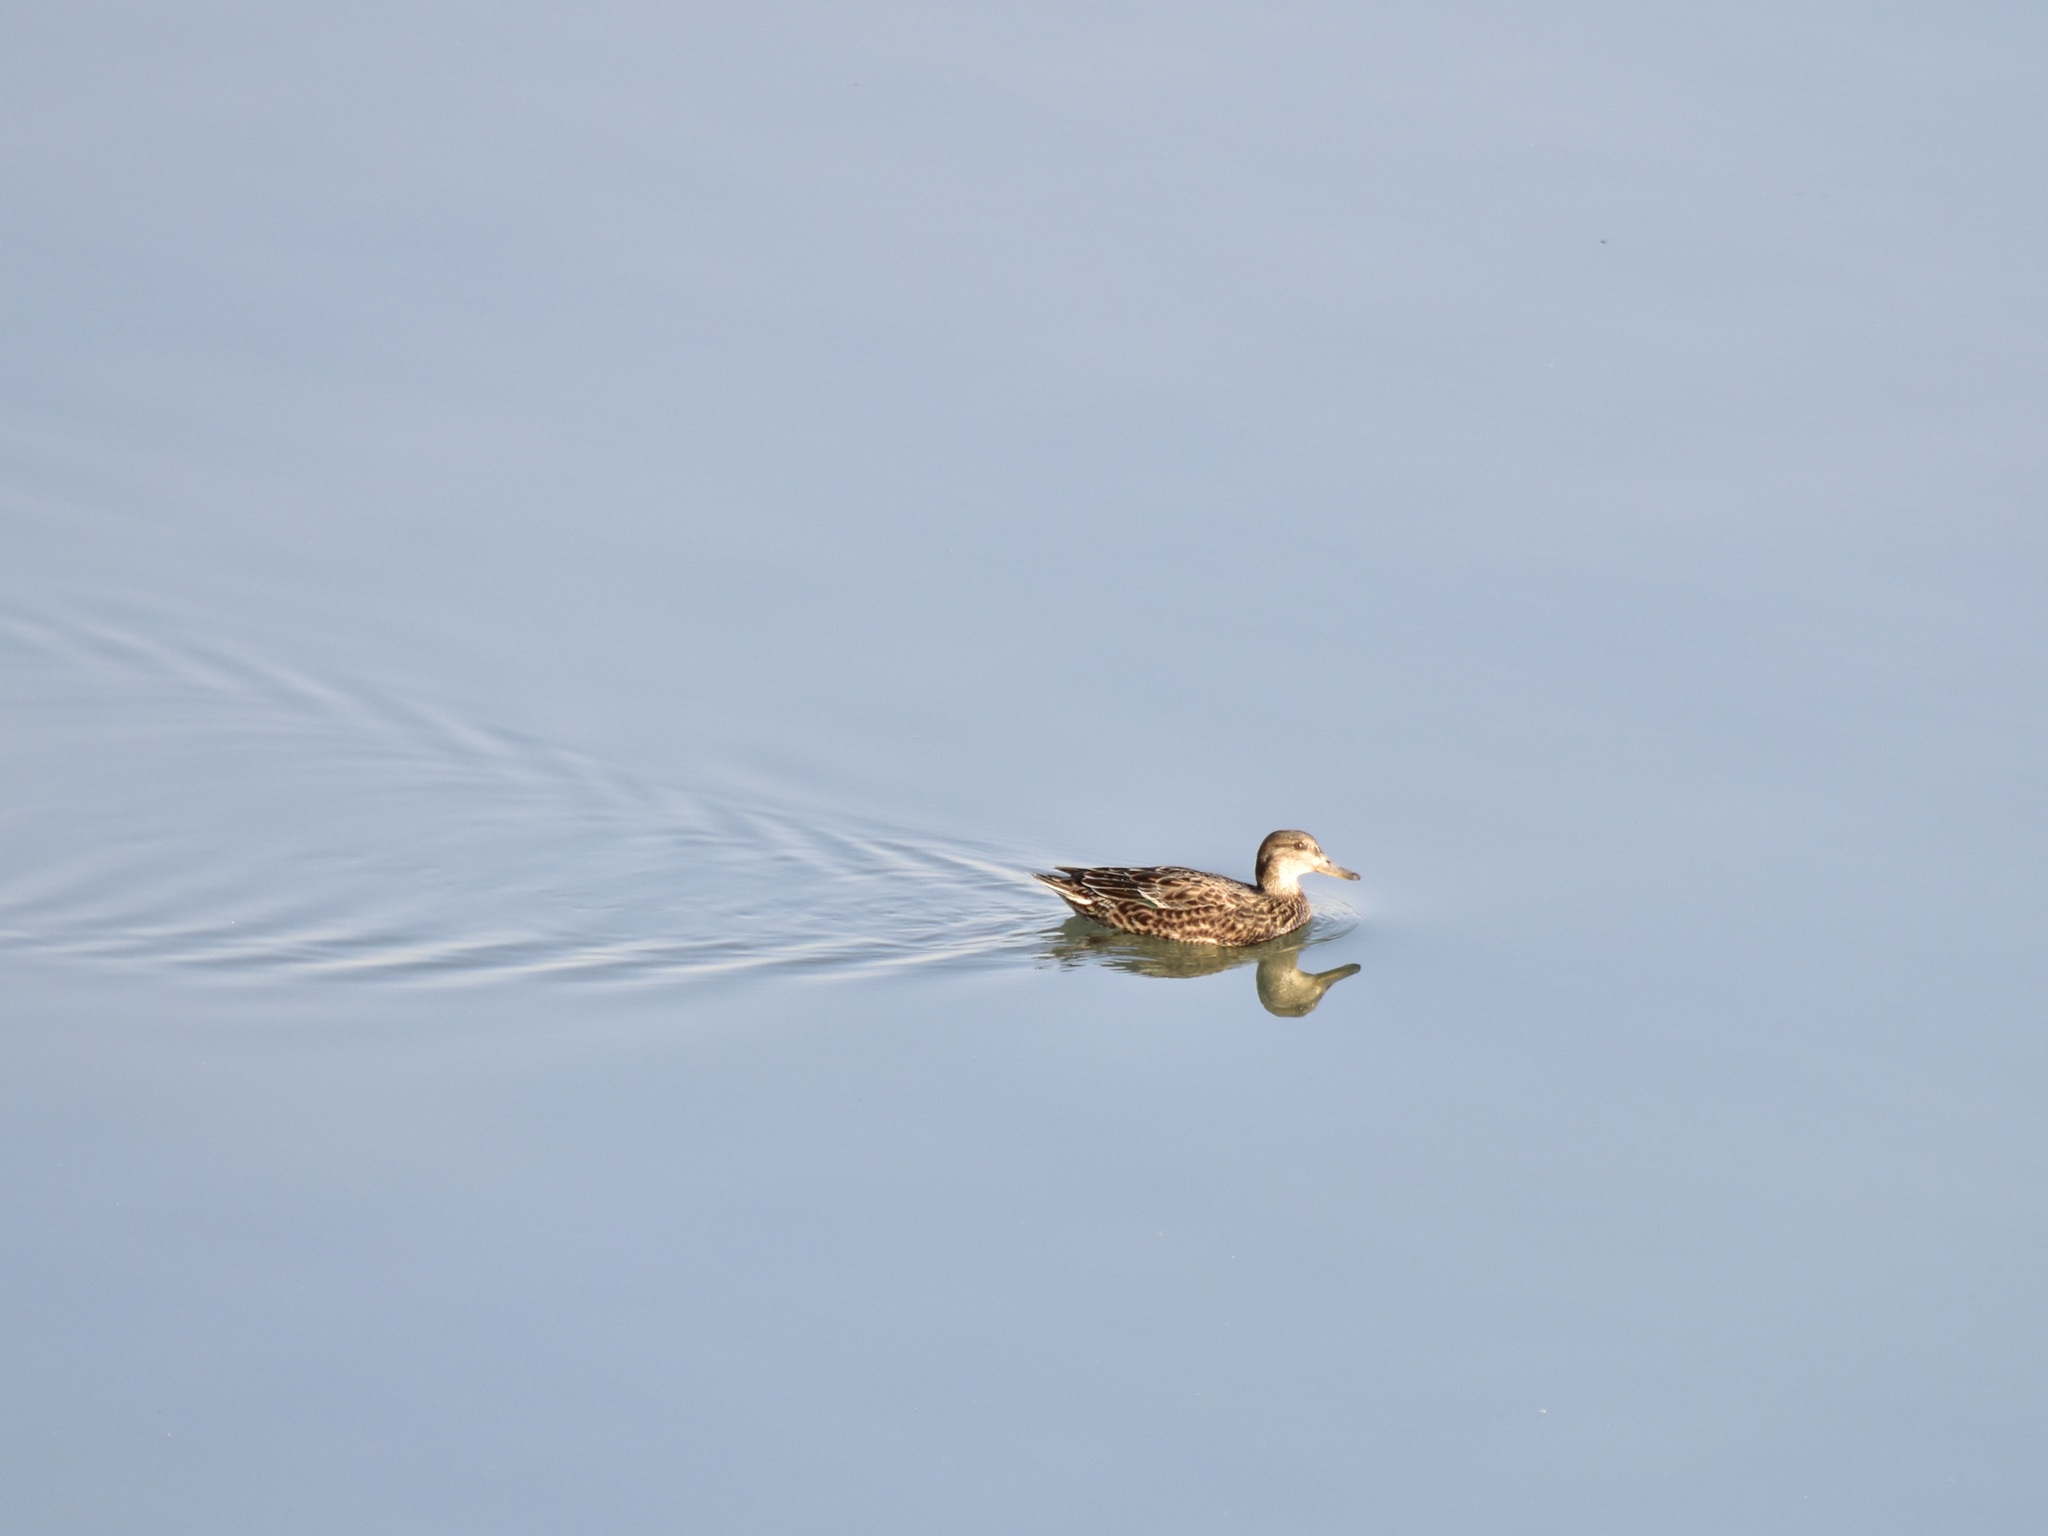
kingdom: Animalia
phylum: Chordata
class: Aves
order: Anseriformes
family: Anatidae
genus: Anas
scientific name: Anas crecca
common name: Eurasian teal
